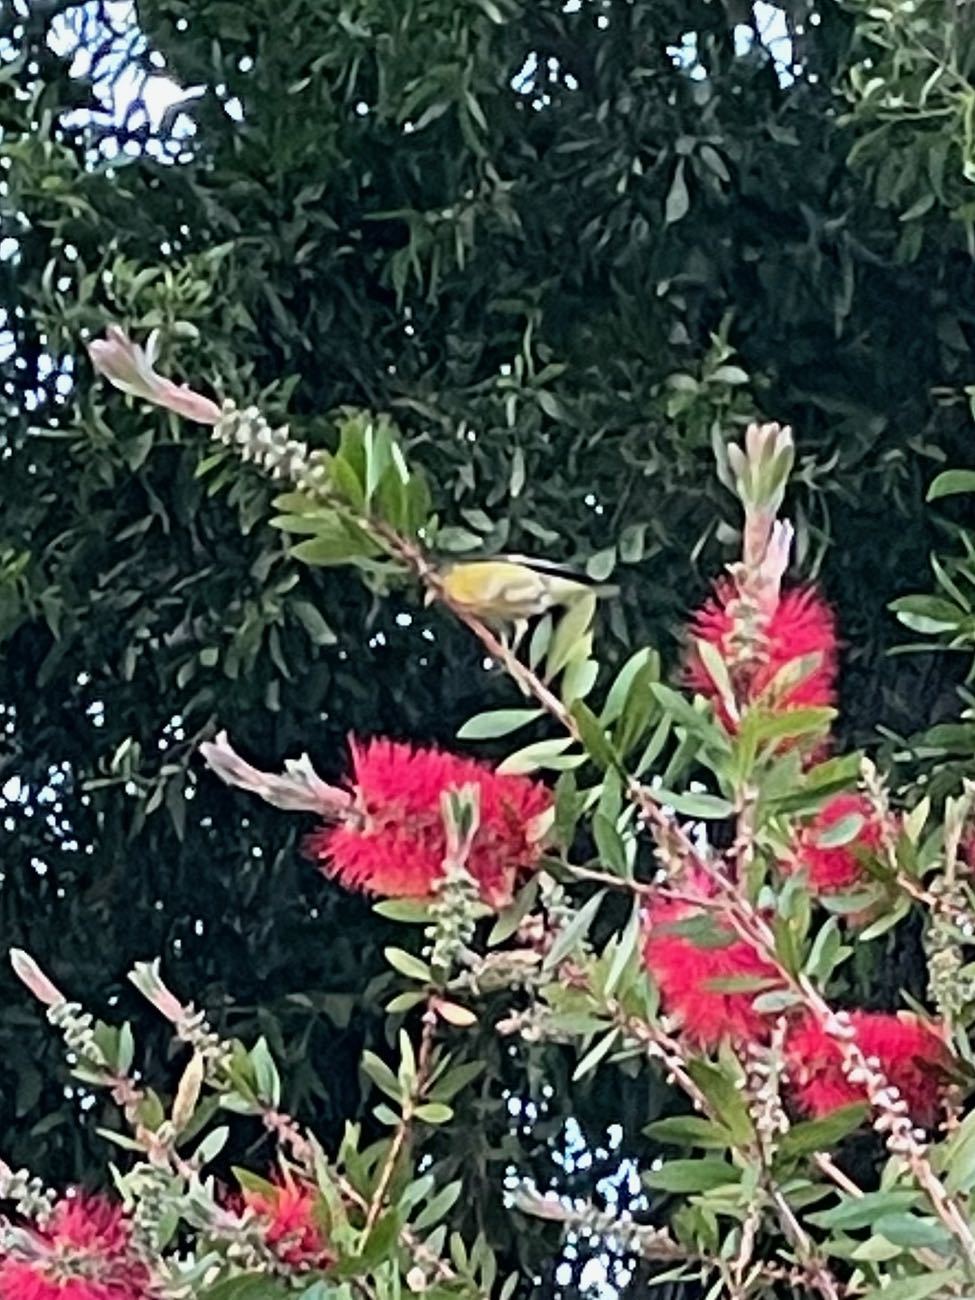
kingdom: Animalia
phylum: Chordata
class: Aves
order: Passeriformes
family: Fringillidae
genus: Spinus
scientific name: Spinus psaltria
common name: Lesser goldfinch
